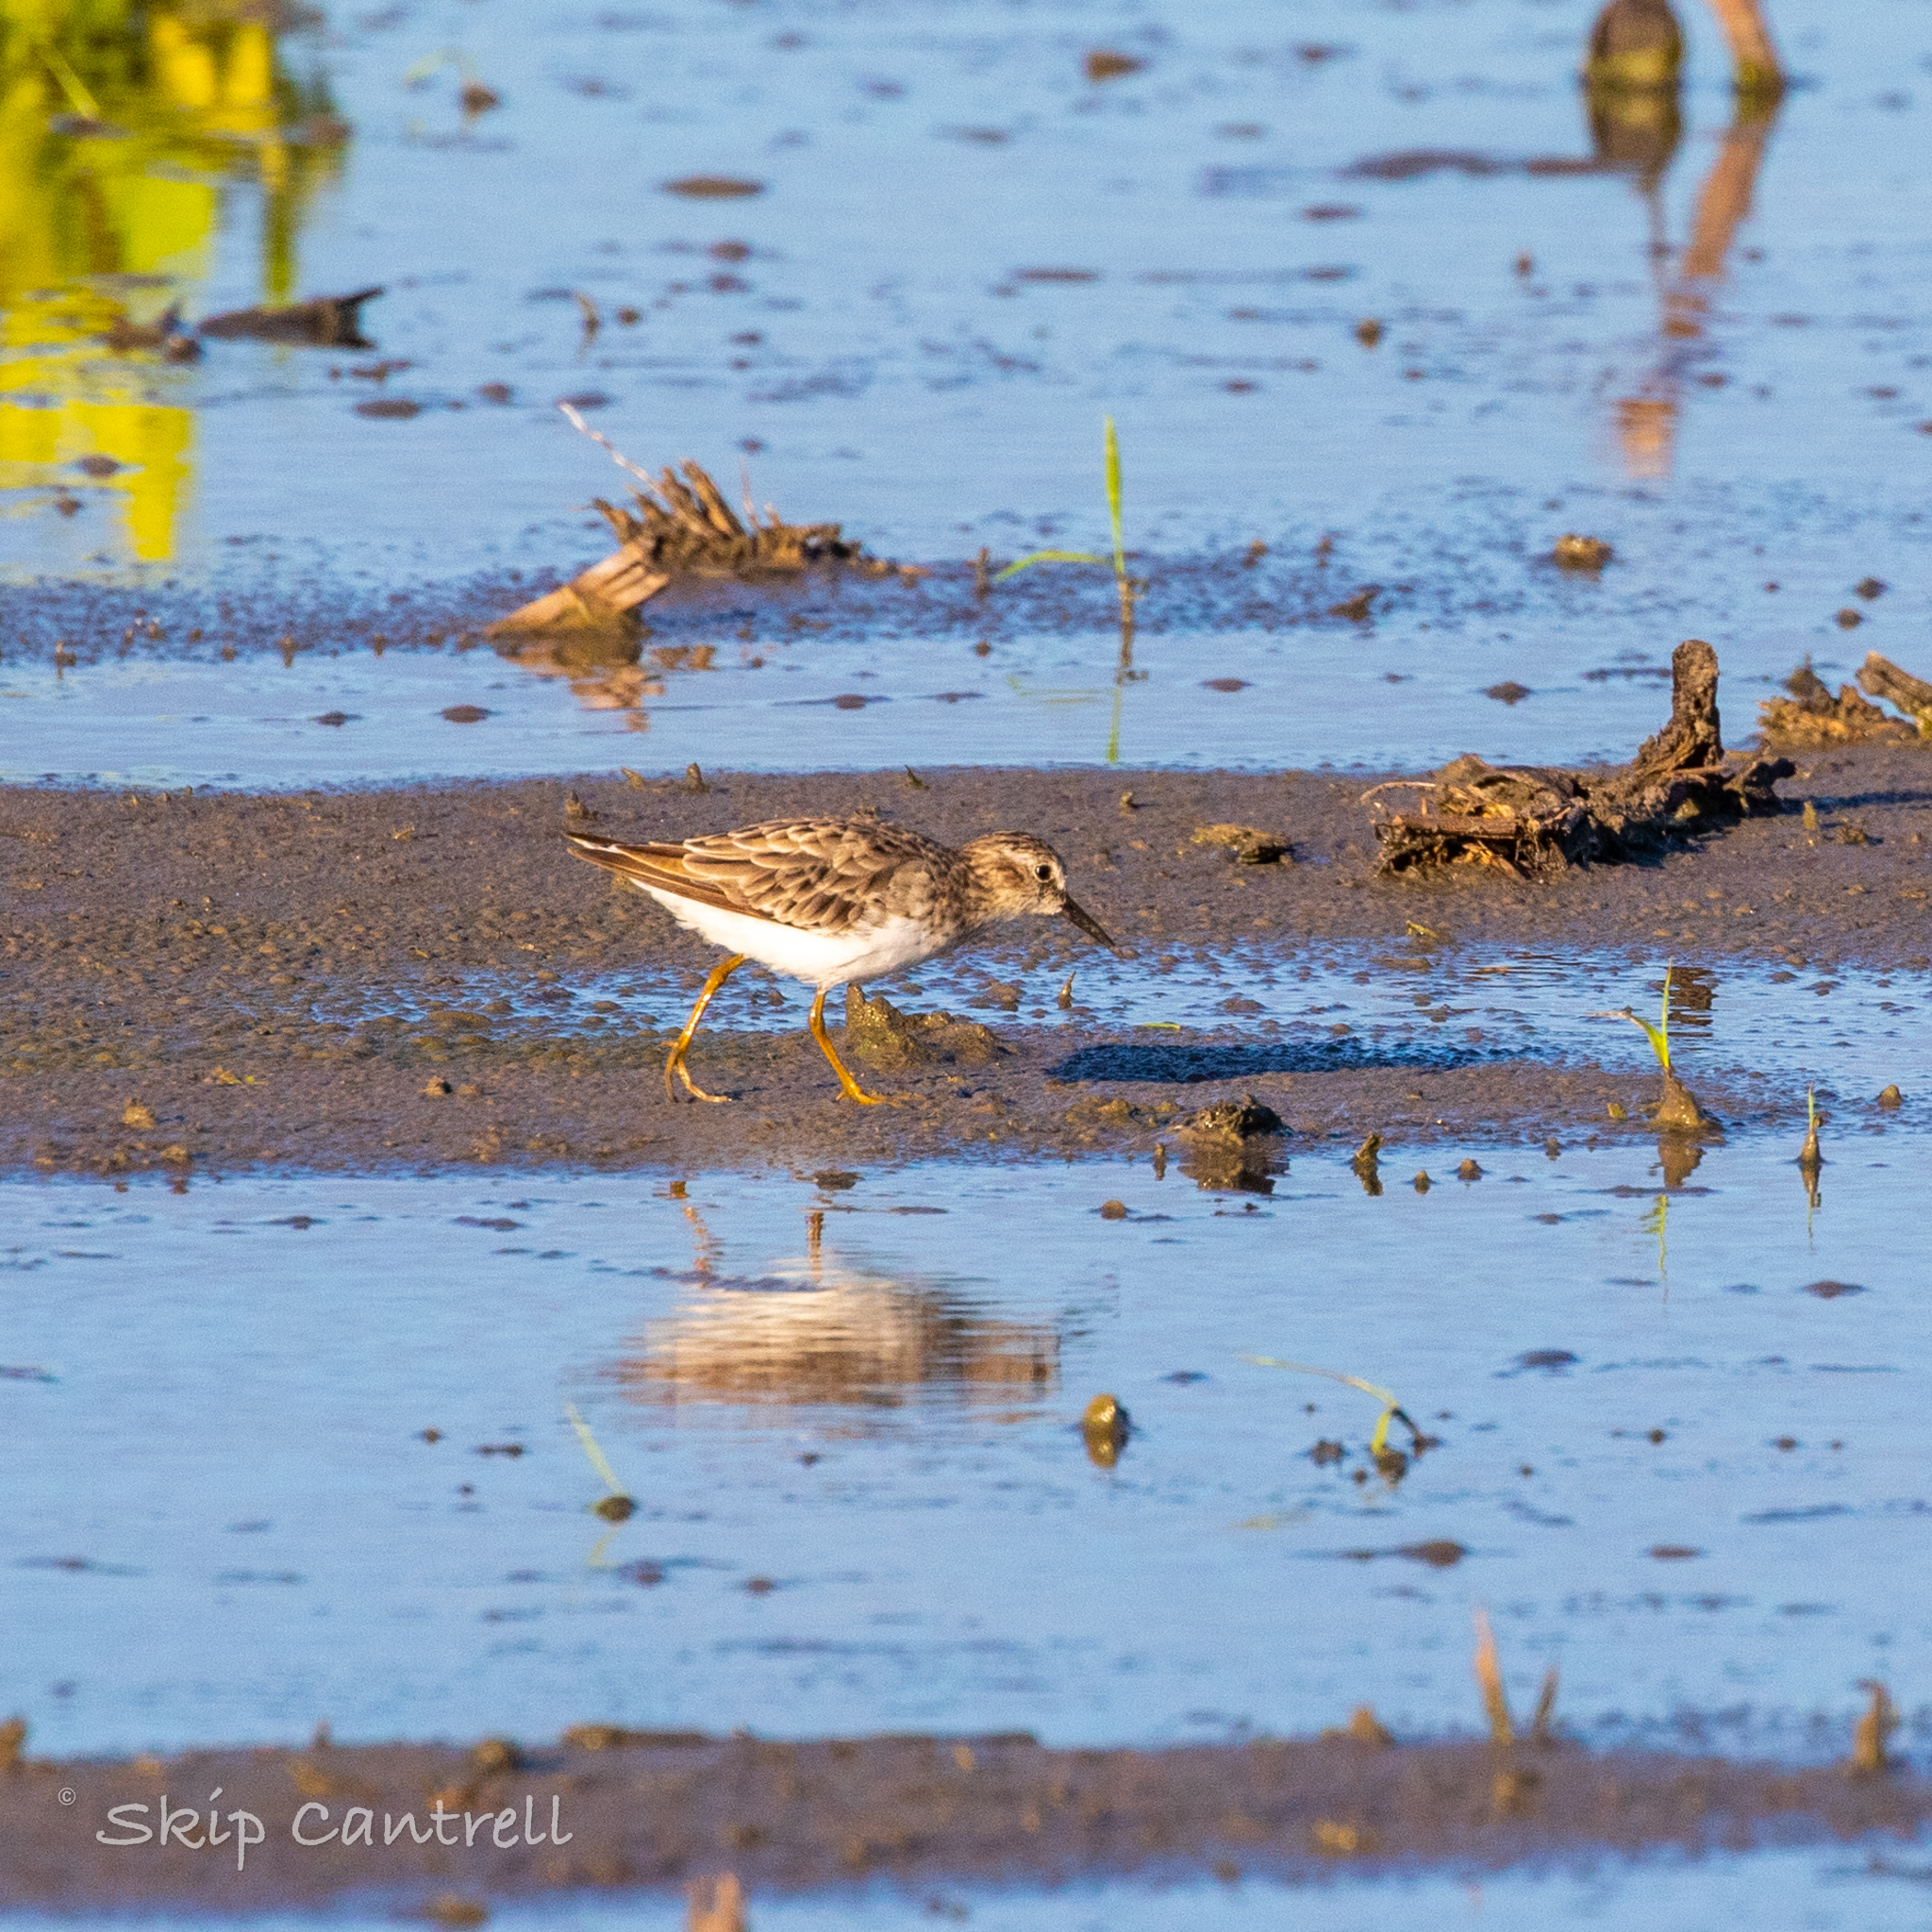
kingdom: Animalia
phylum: Chordata
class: Aves
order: Charadriiformes
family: Scolopacidae
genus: Calidris
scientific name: Calidris minutilla
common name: Least sandpiper
